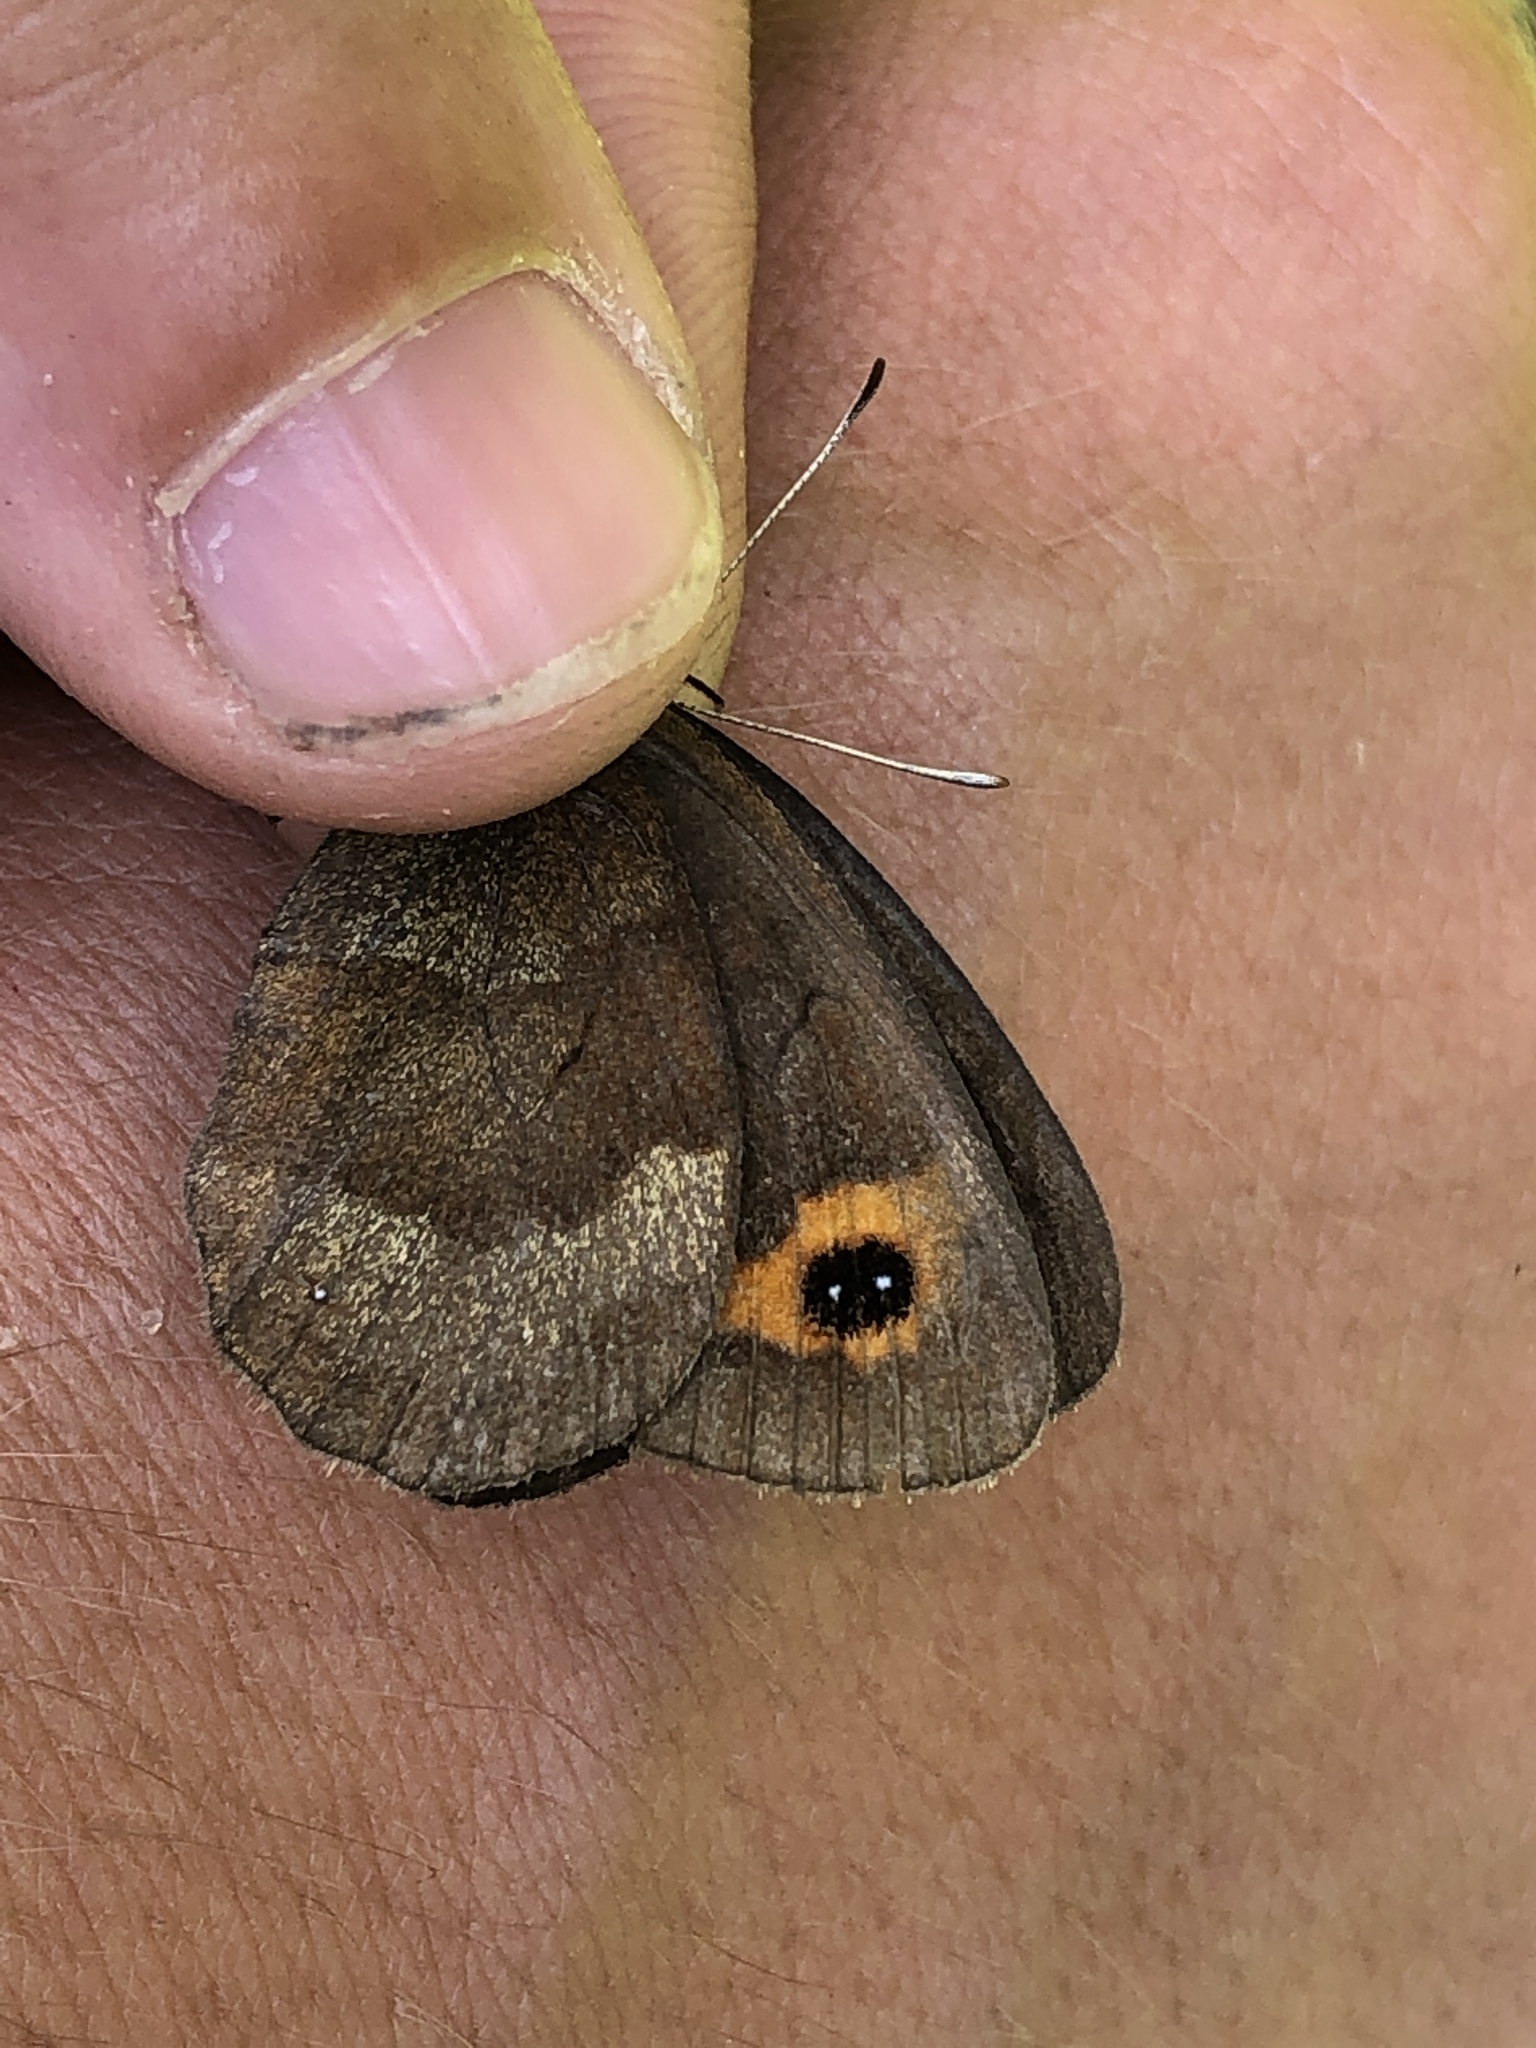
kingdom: Animalia
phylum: Arthropoda
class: Insecta
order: Lepidoptera
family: Nymphalidae
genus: Erebia
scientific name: Erebia aethiops
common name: Scotch argus
